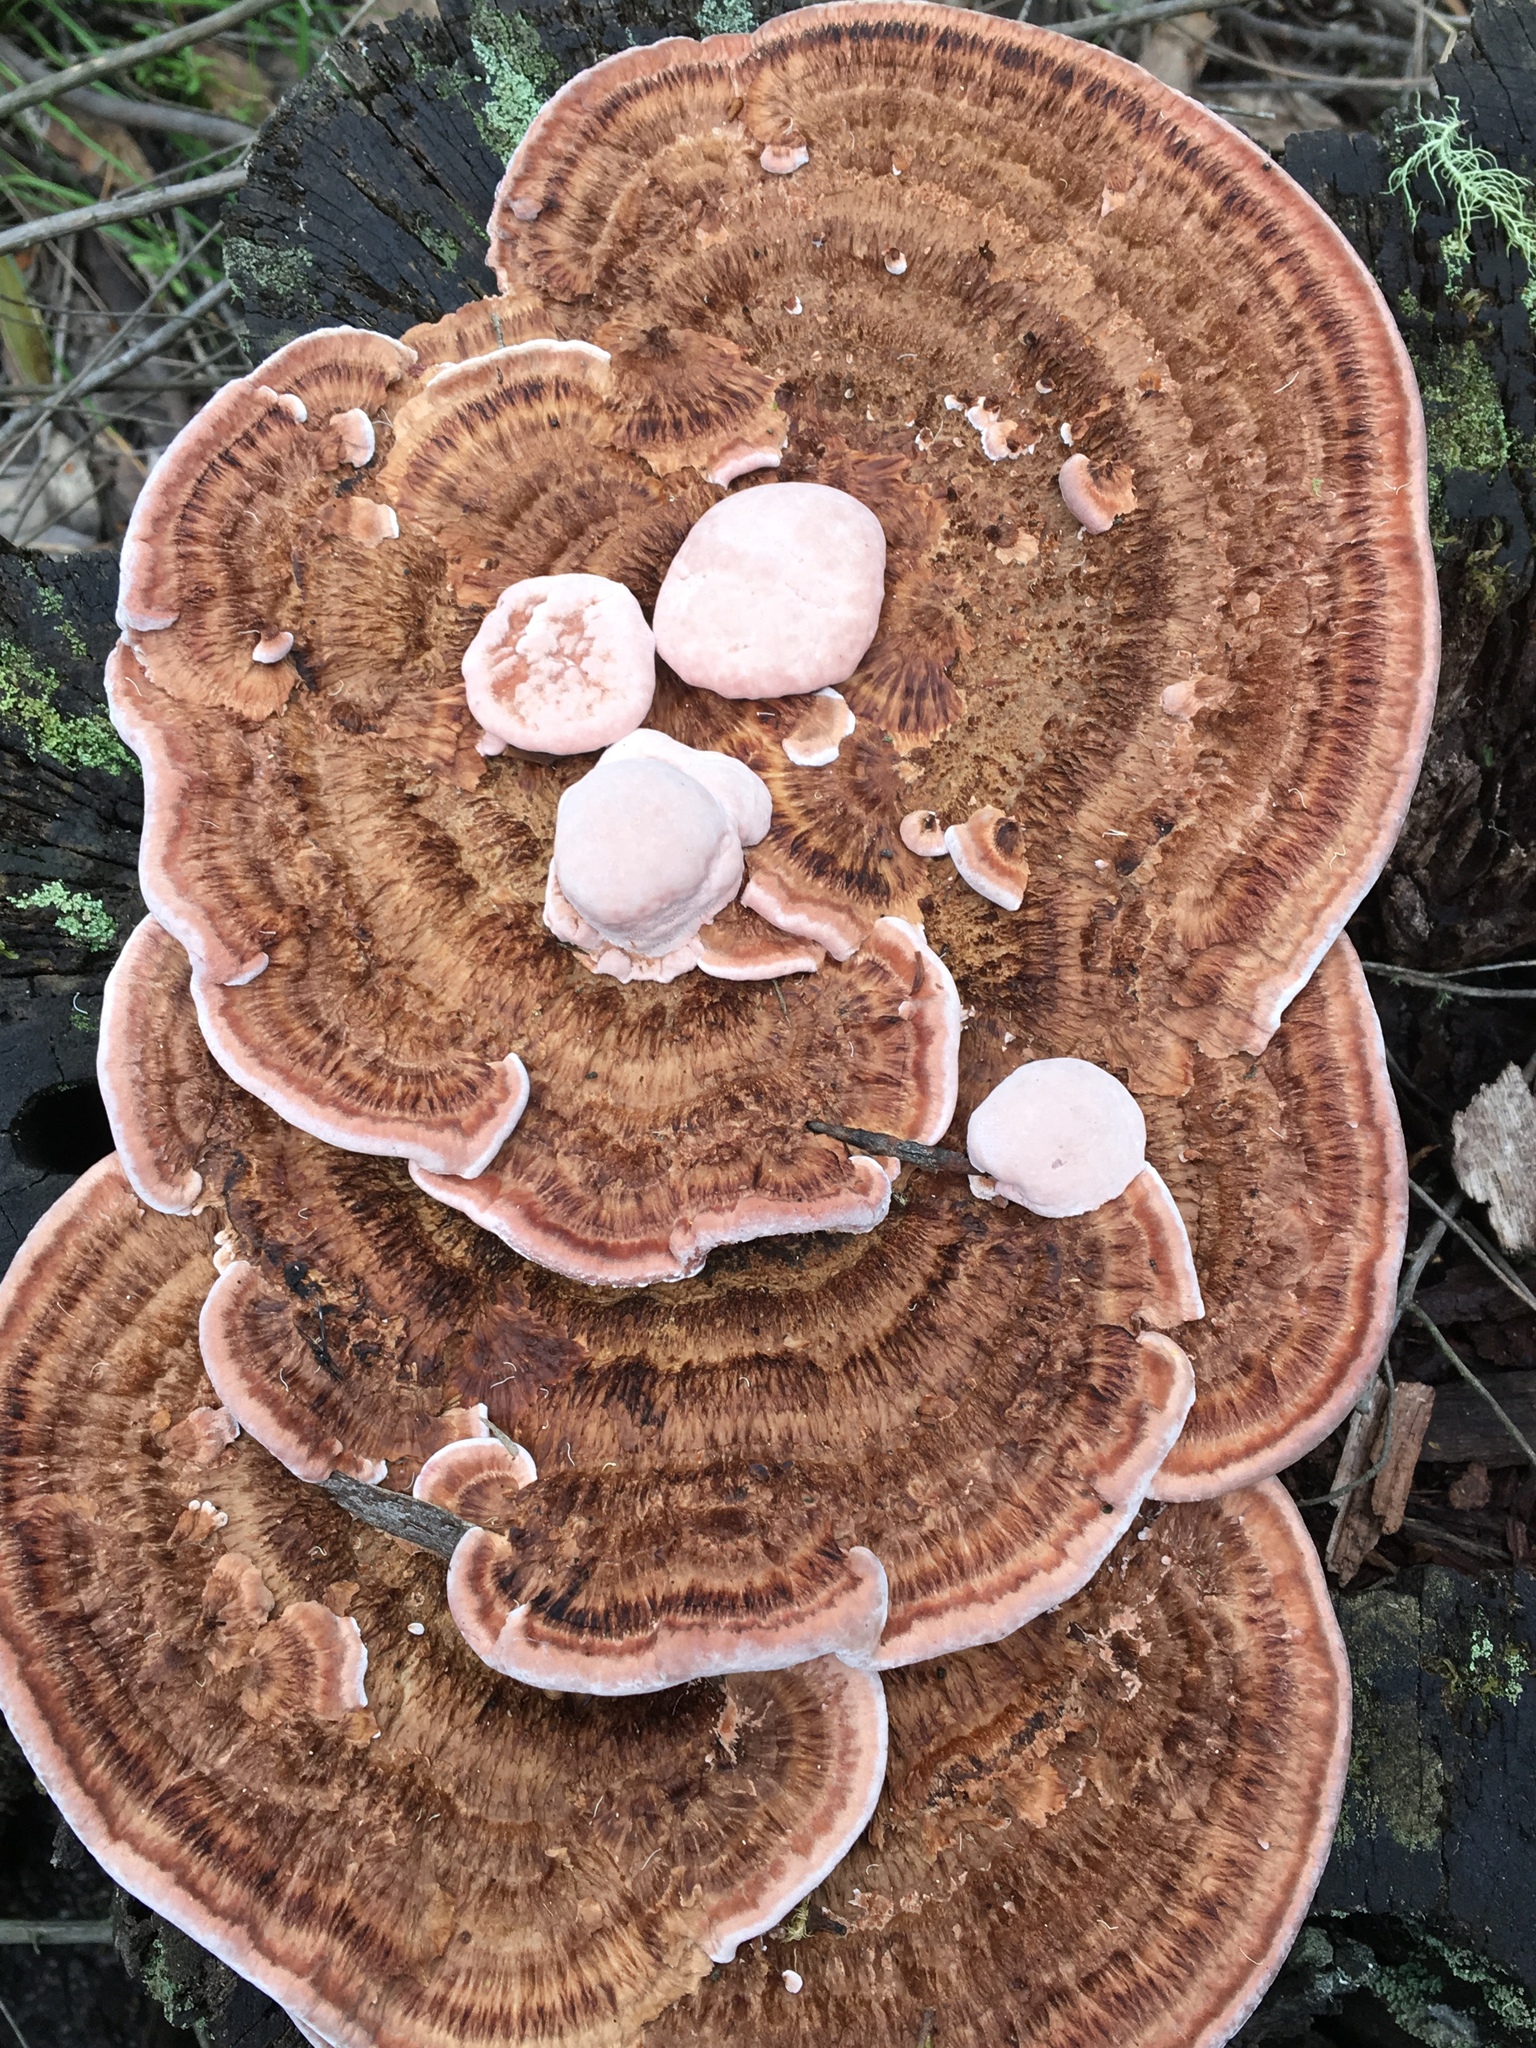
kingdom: Fungi
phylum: Basidiomycota
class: Agaricomycetes
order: Polyporales
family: Fomitopsidaceae
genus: Rhodofomitopsis
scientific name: Rhodofomitopsis lilacinogilva
